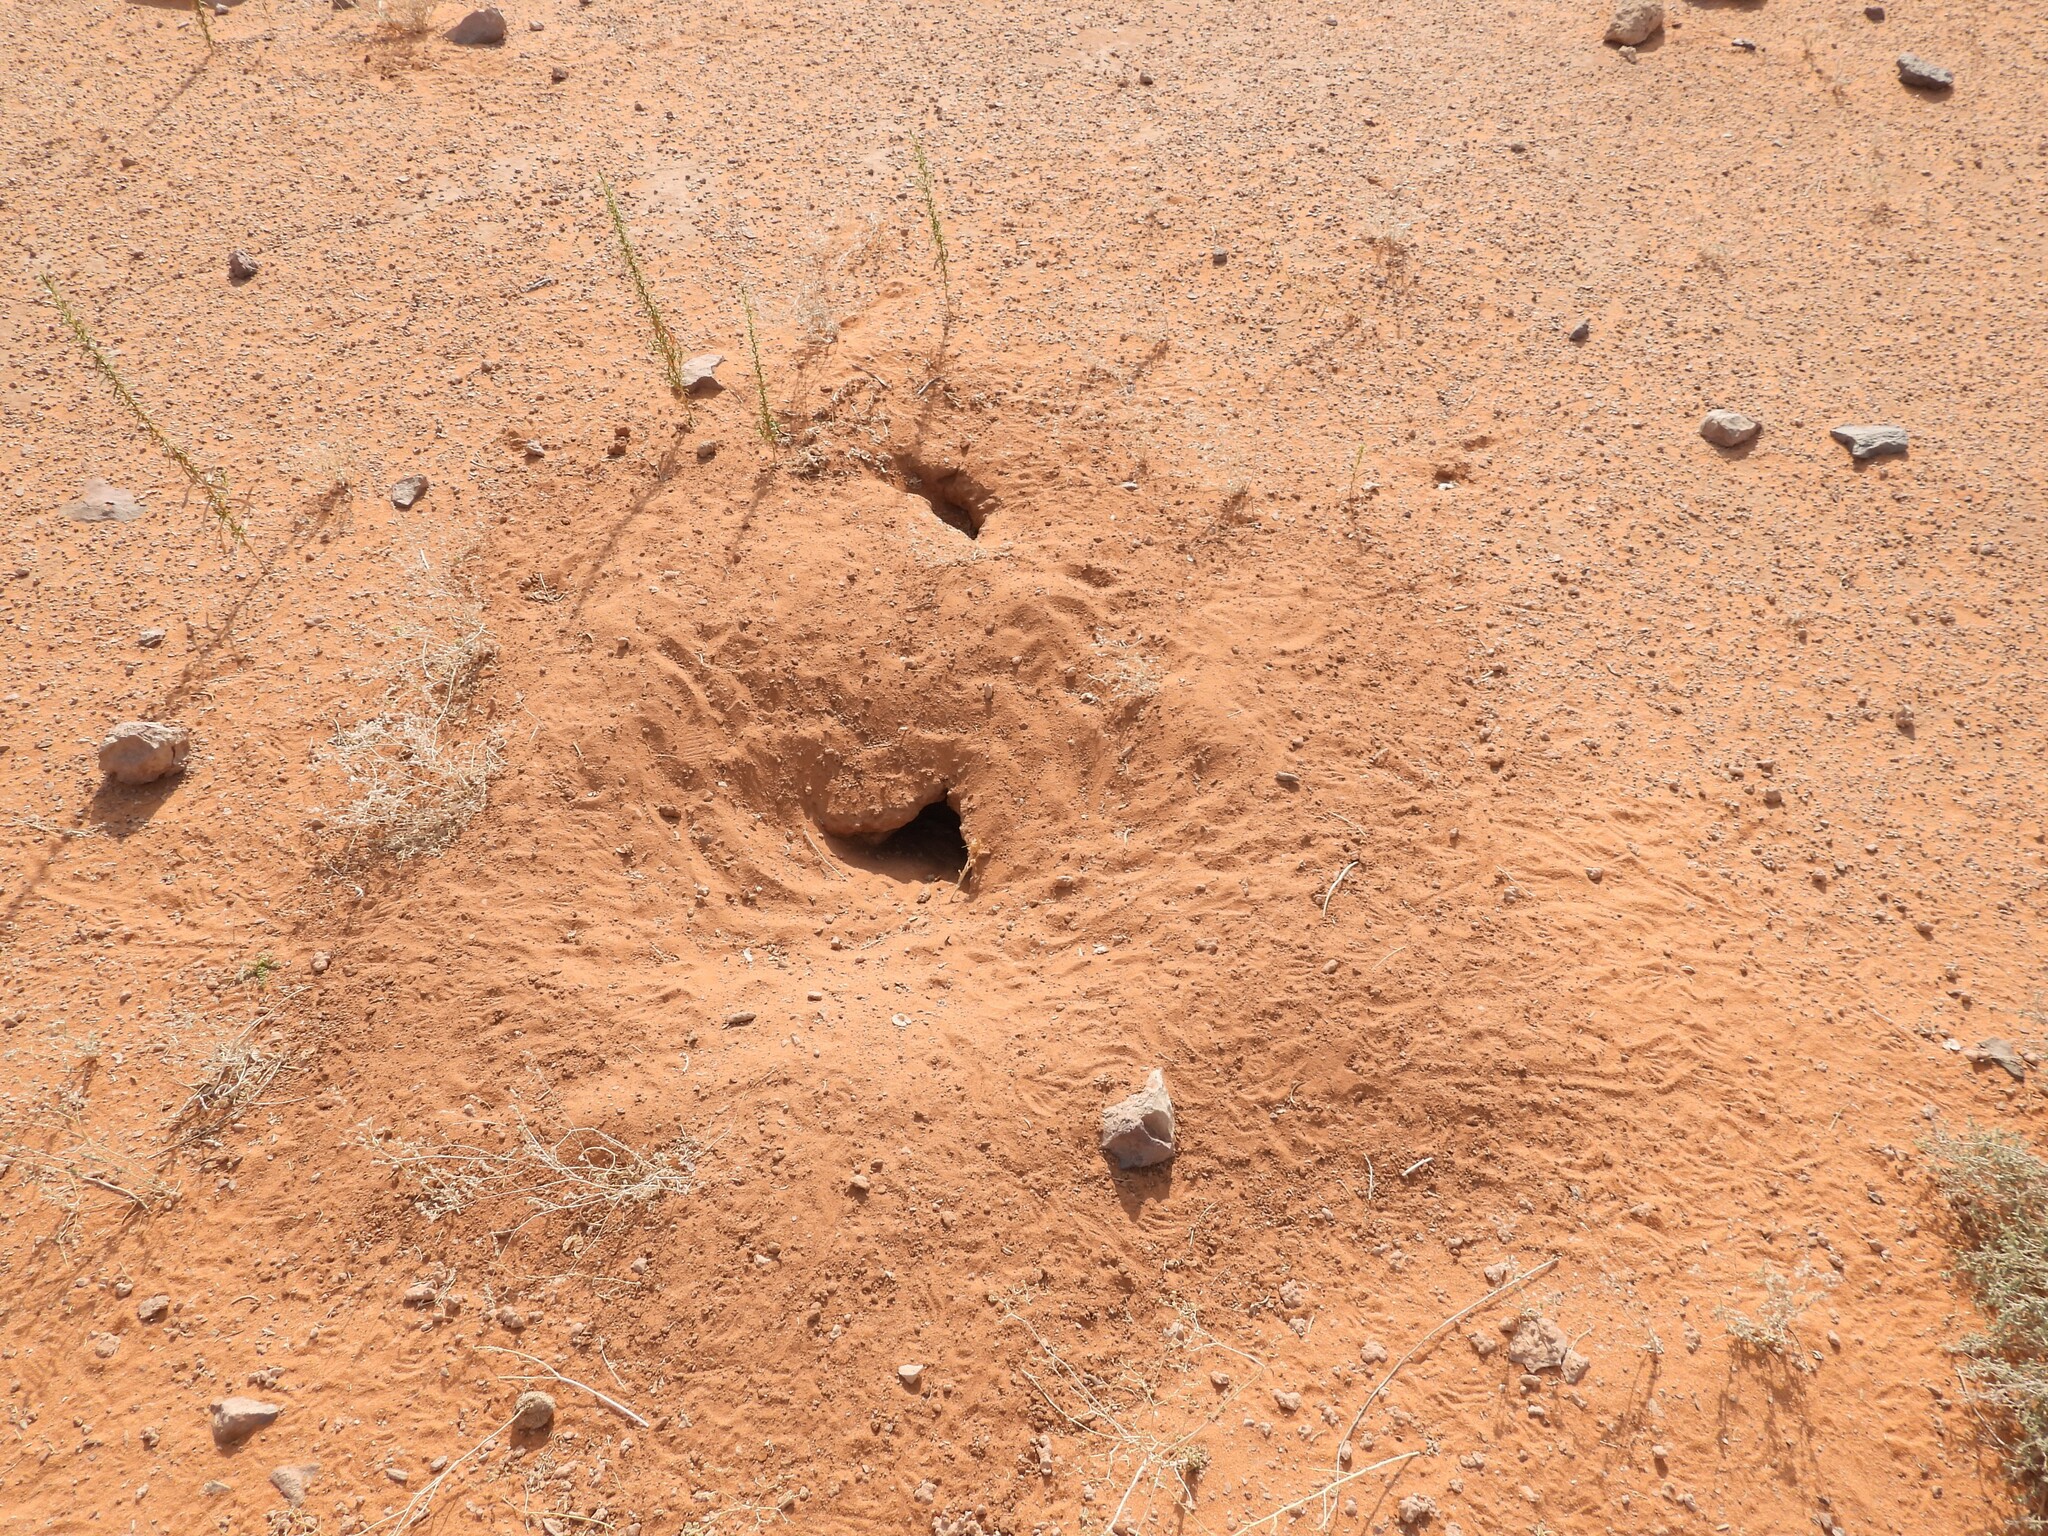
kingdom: Animalia
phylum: Chordata
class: Squamata
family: Agamidae
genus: Uromastyx
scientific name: Uromastyx aegyptia
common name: Egyptian mastigure
